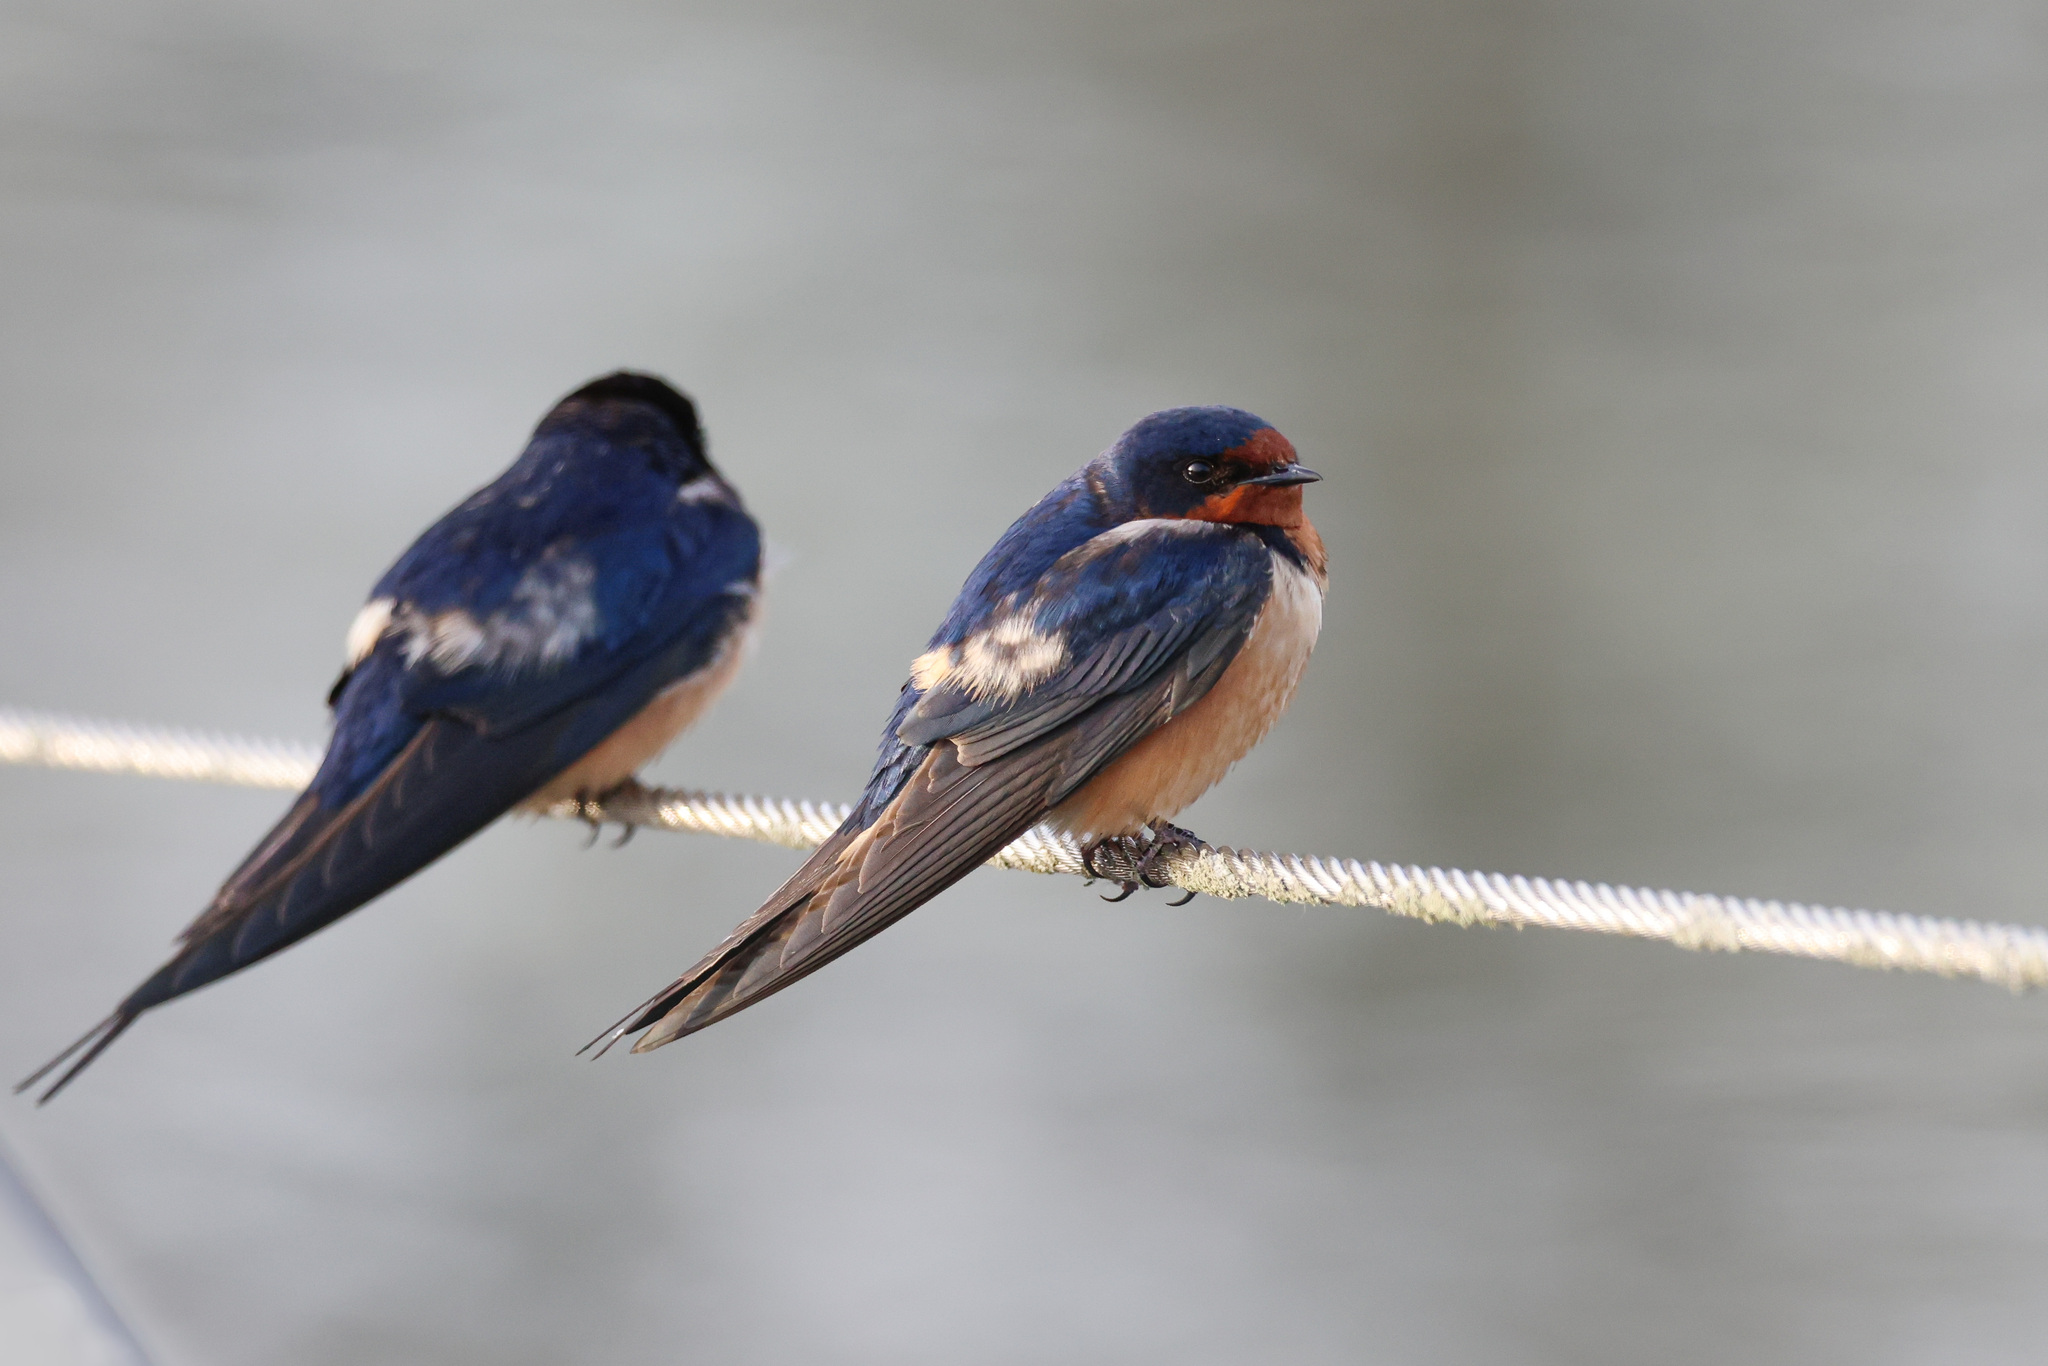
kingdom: Animalia
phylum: Chordata
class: Aves
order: Passeriformes
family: Hirundinidae
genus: Hirundo
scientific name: Hirundo rustica
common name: Barn swallow
